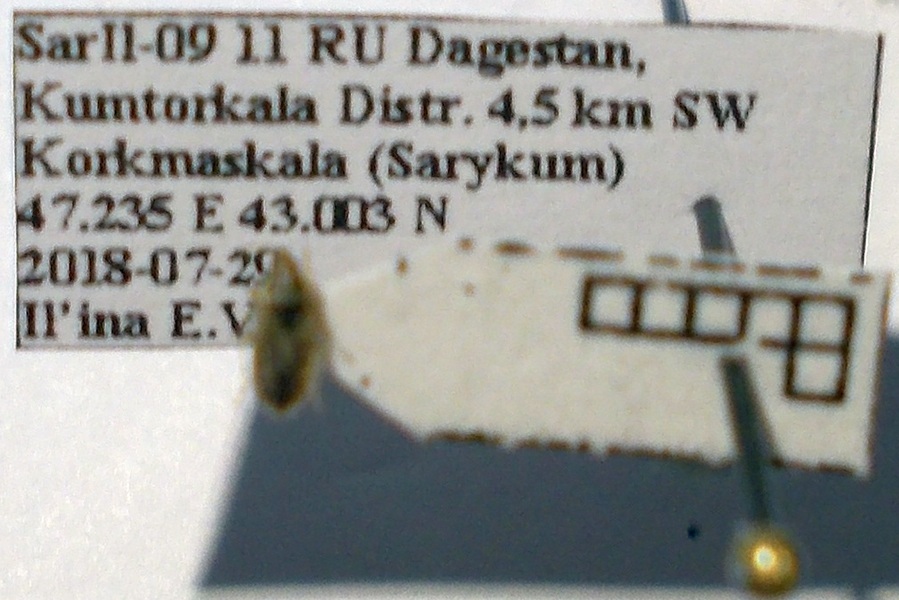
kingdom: Animalia
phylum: Arthropoda
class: Insecta
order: Hemiptera
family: Artheneidae
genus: Holcocranum
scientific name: Holcocranum saturejae
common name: Cattail bug
